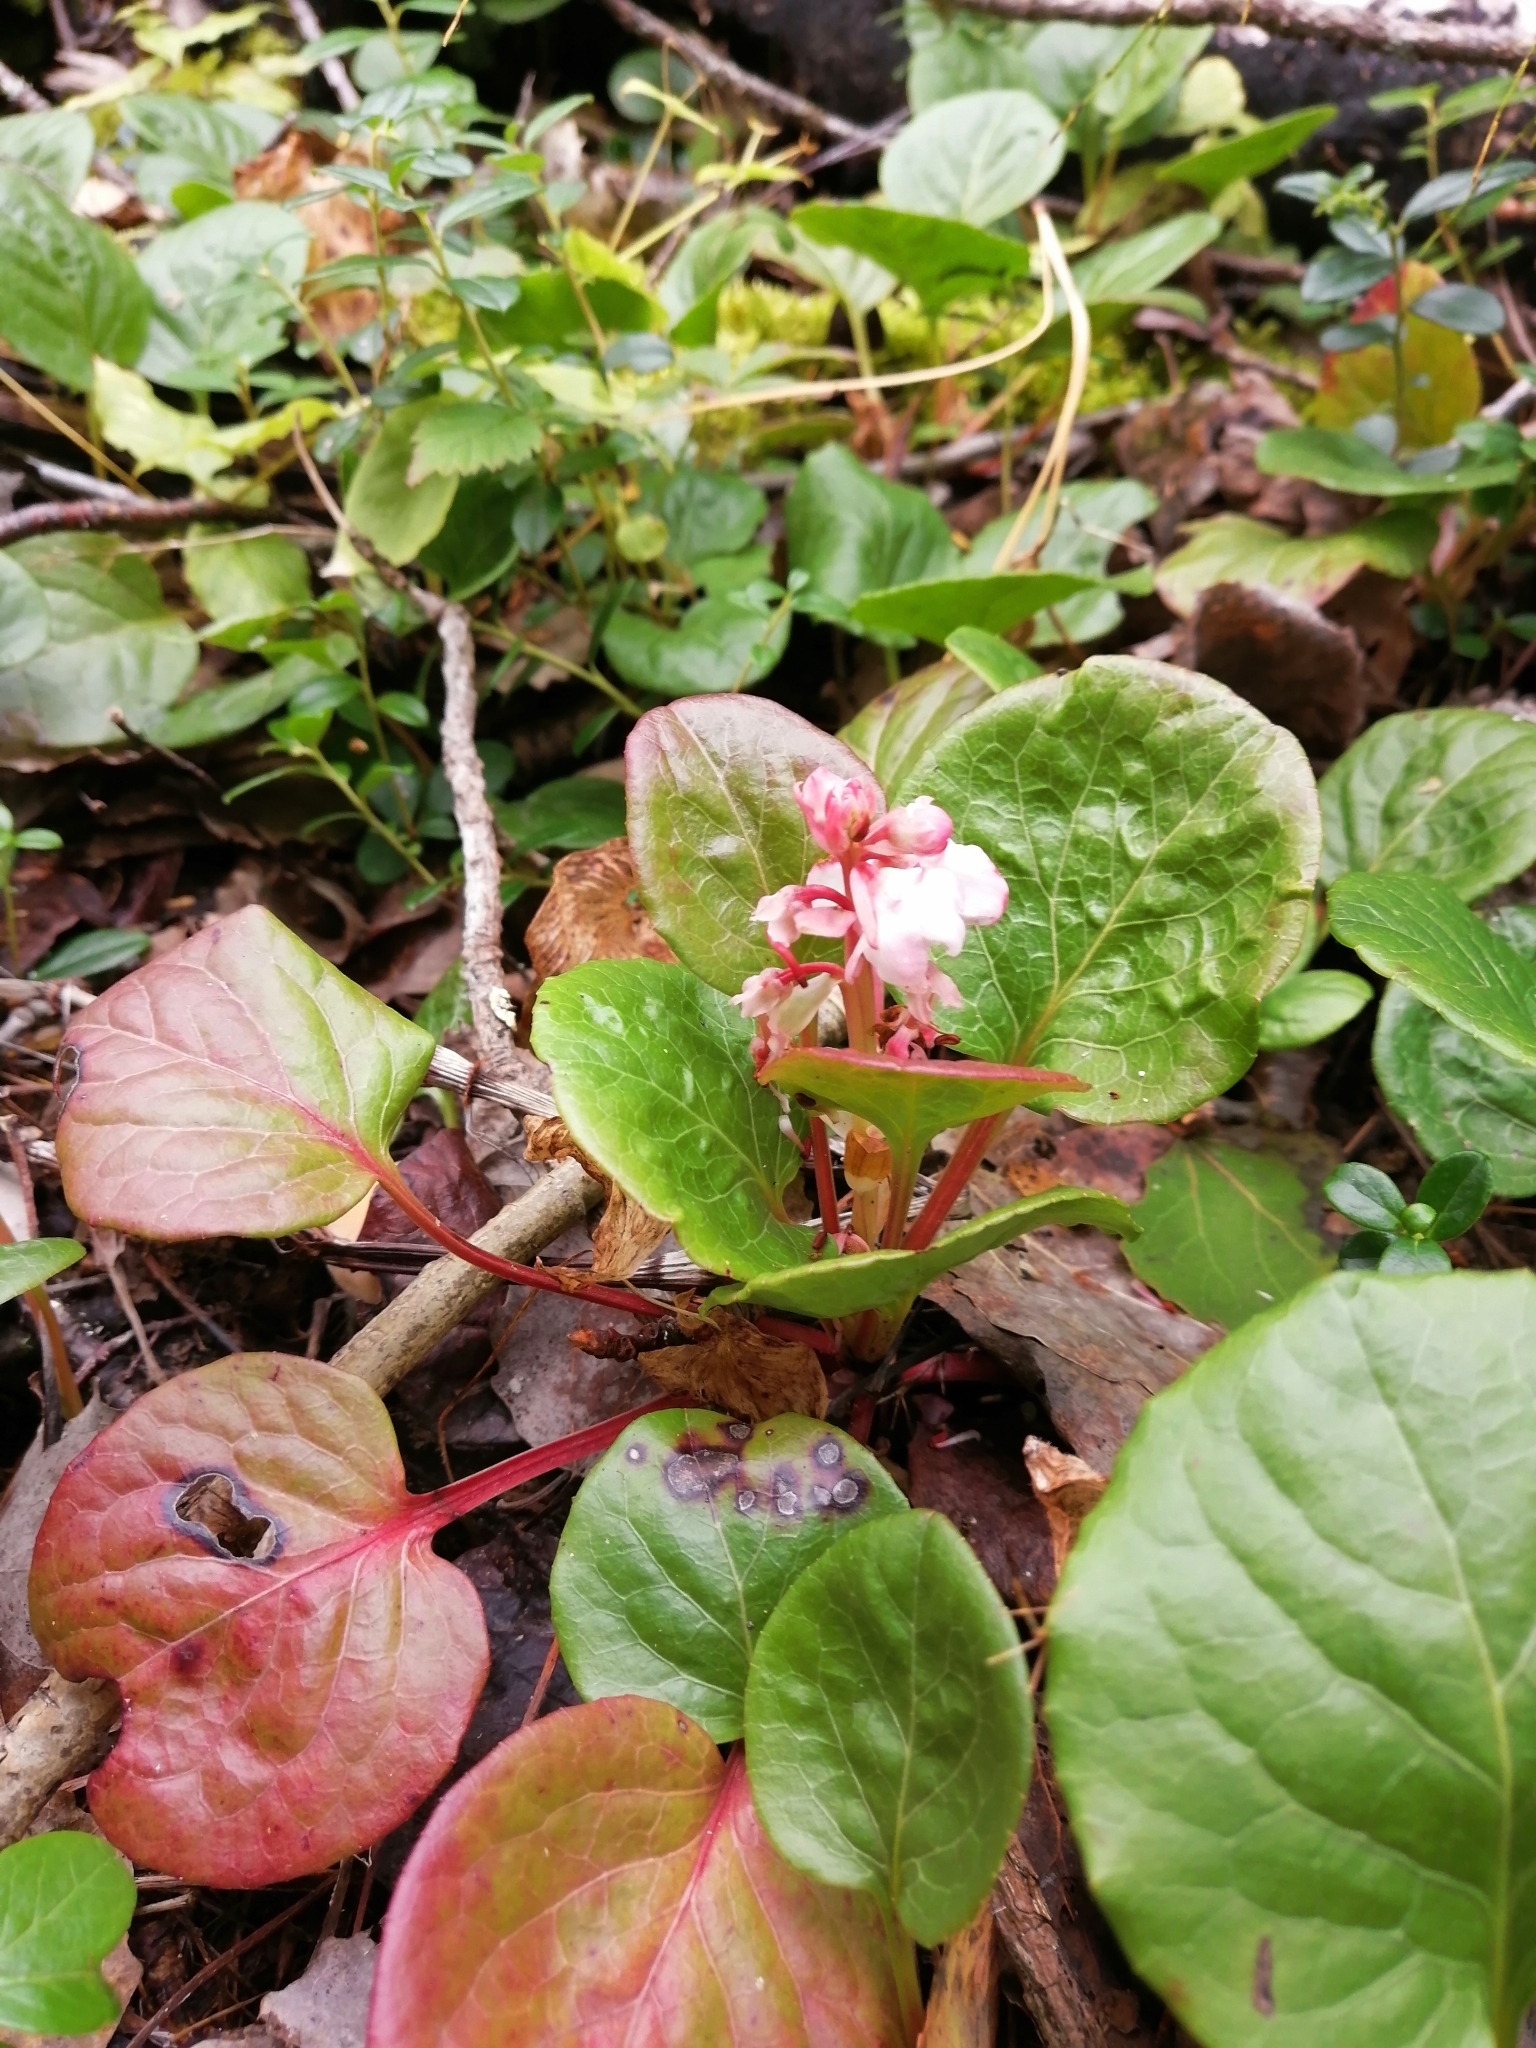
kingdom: Plantae
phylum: Tracheophyta
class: Magnoliopsida
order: Ericales
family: Ericaceae
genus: Pyrola
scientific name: Pyrola asarifolia
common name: Bog wintergreen
